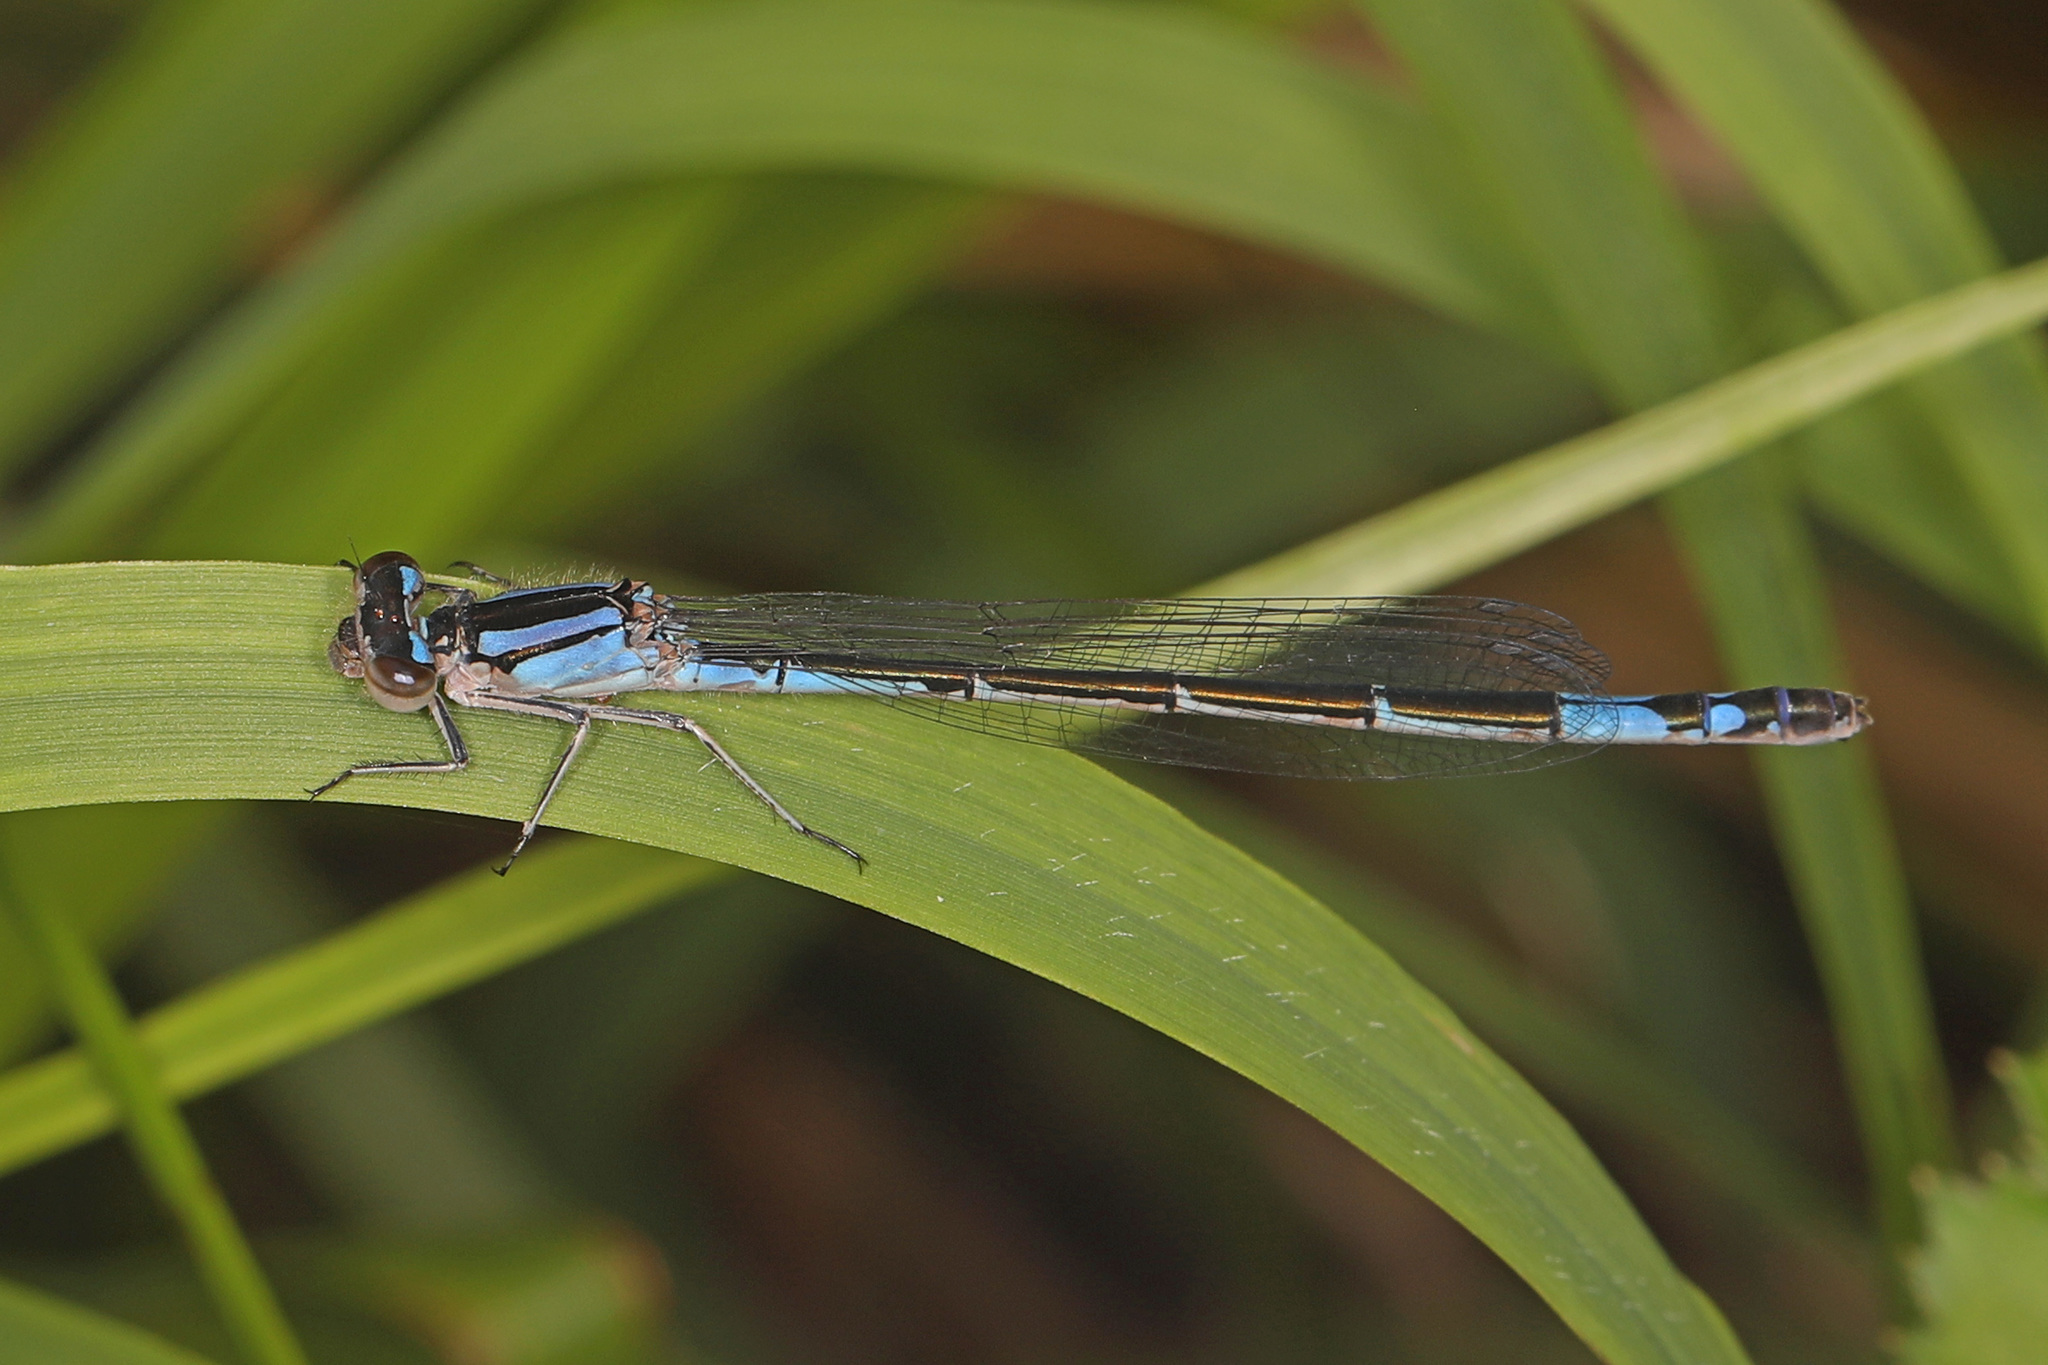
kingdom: Animalia
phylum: Arthropoda
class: Insecta
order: Odonata
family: Coenagrionidae
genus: Enallagma
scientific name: Enallagma aspersum
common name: Azure bluet
